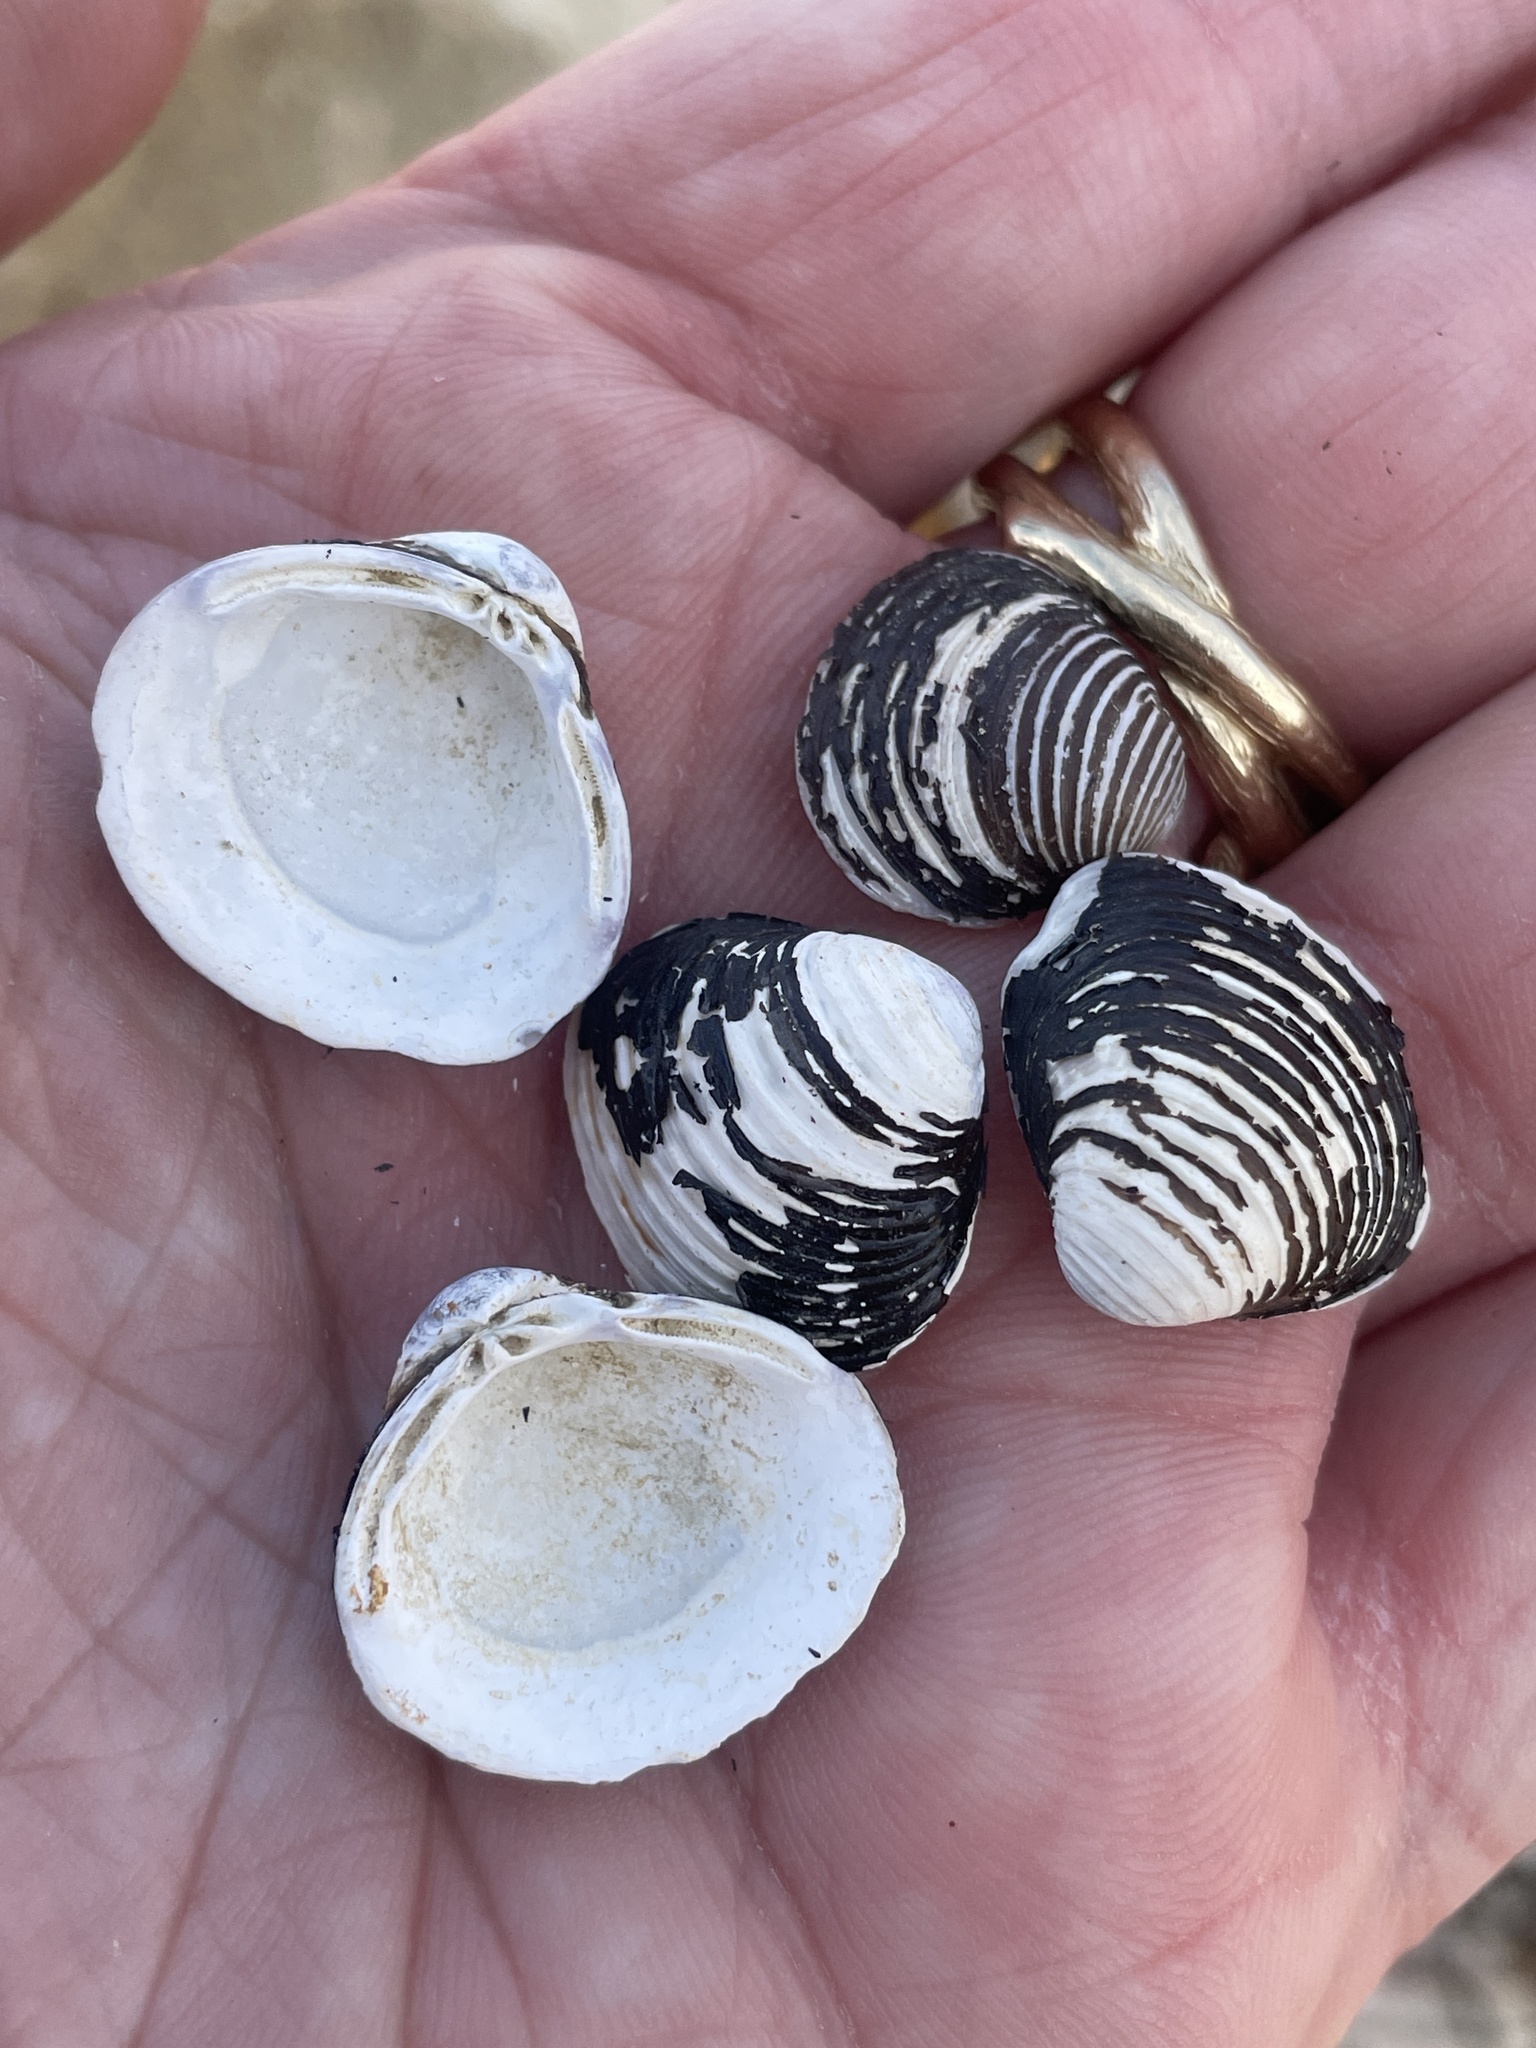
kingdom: Animalia
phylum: Mollusca
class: Bivalvia
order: Venerida
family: Cyrenidae
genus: Corbicula
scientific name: Corbicula fluminea
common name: Asian clam
